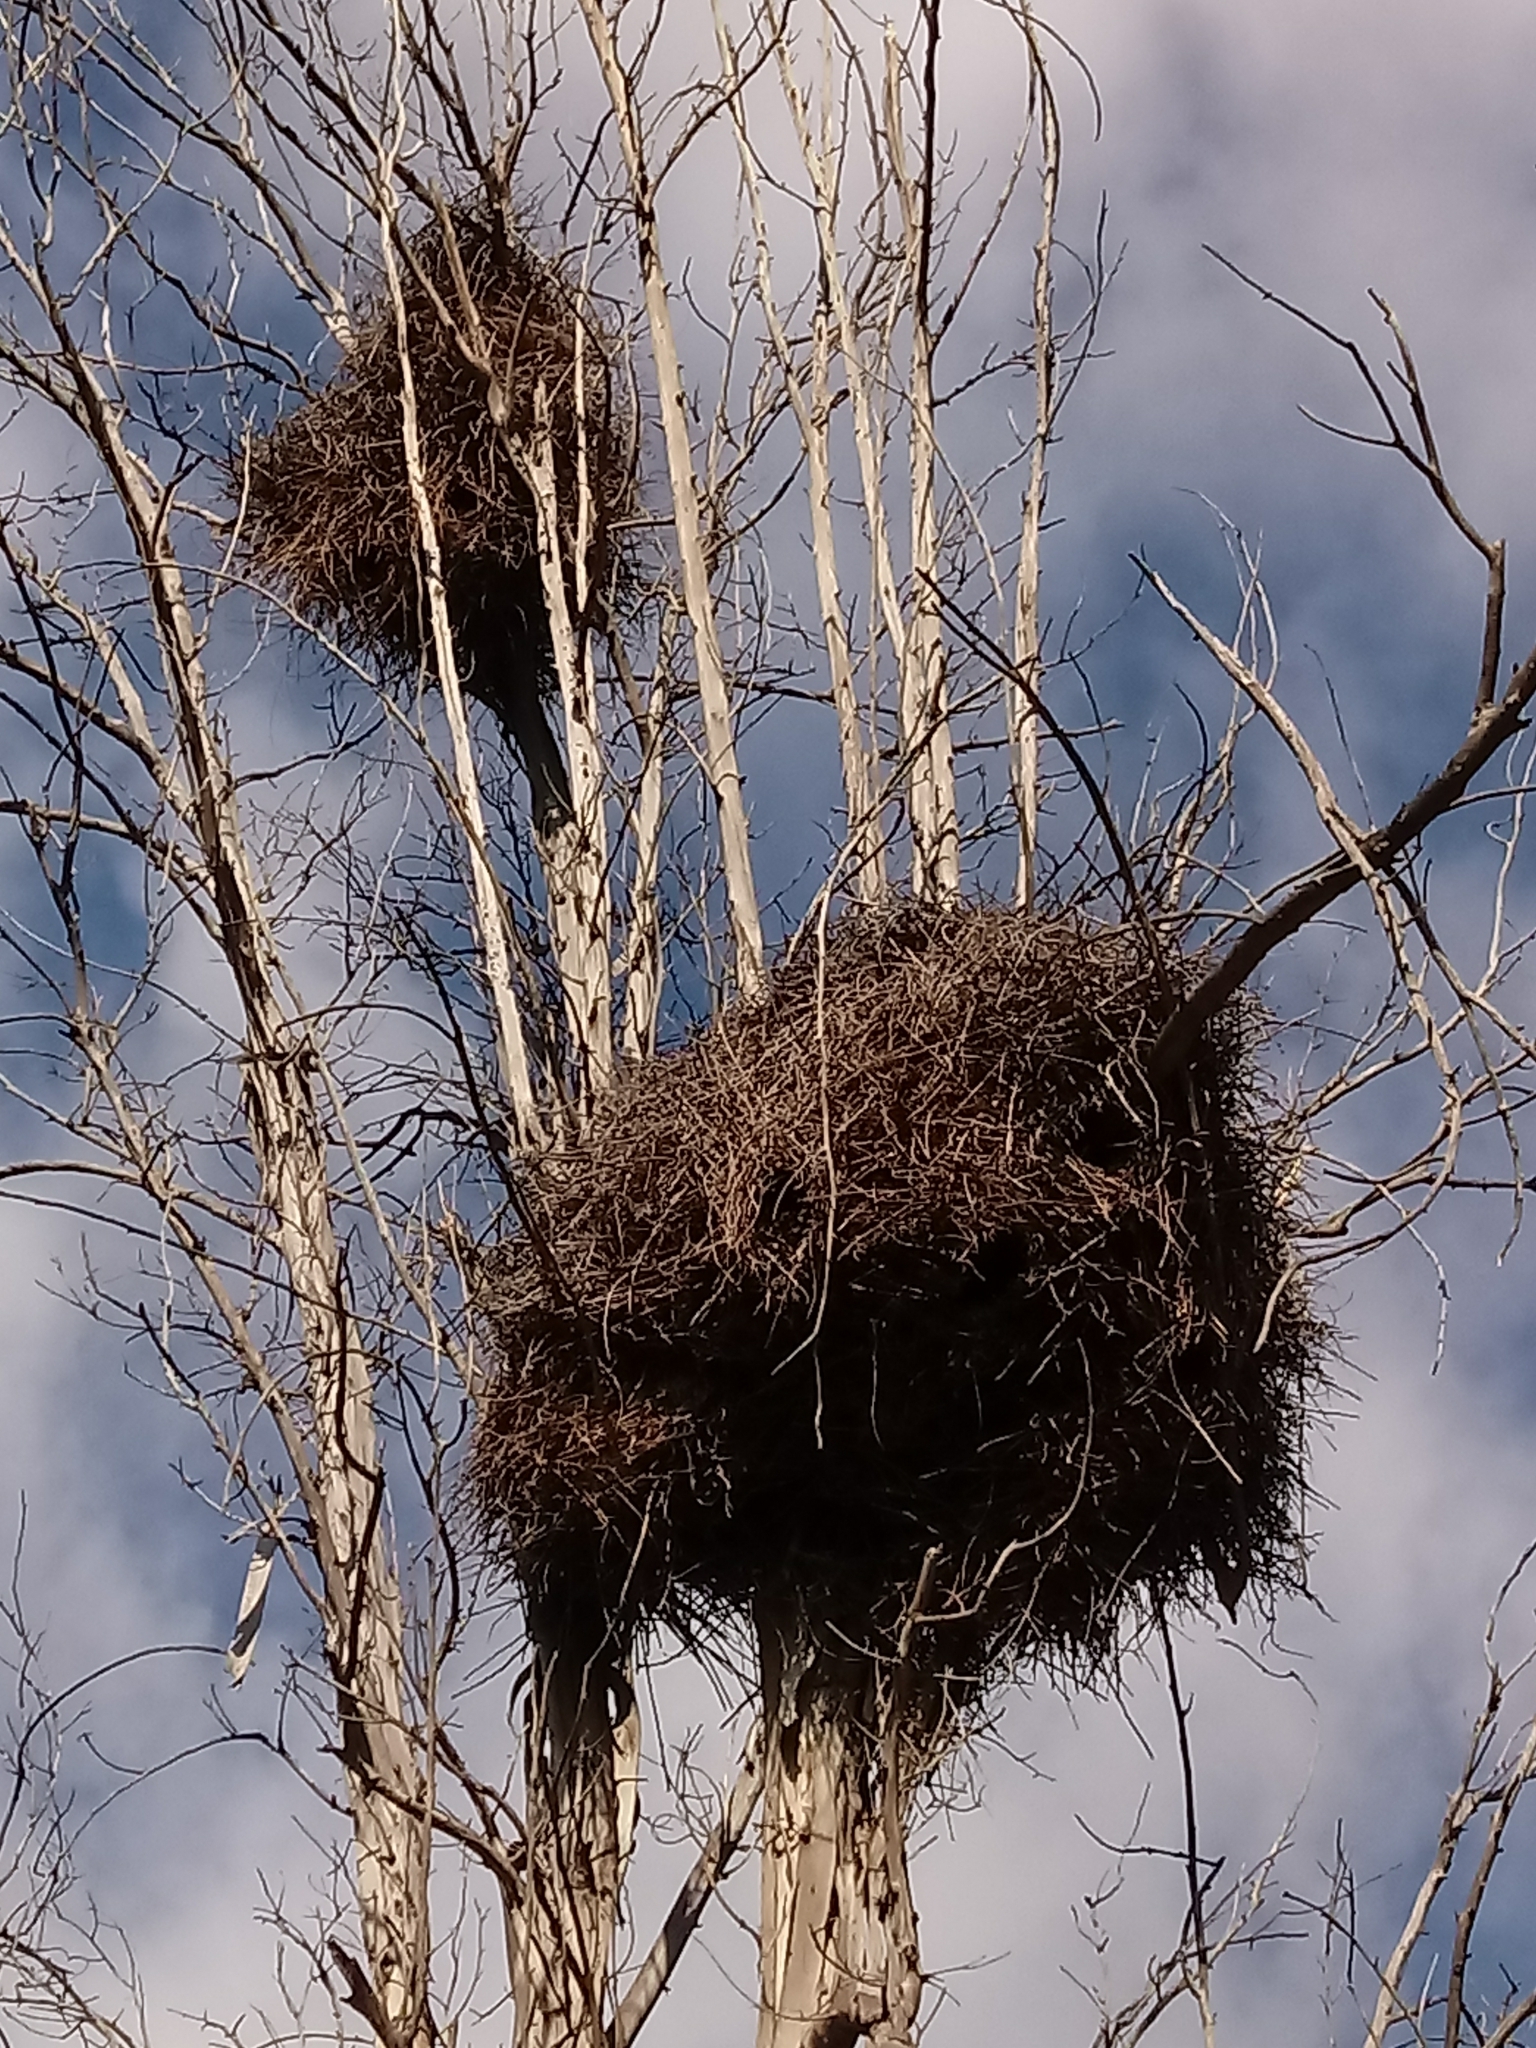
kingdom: Animalia
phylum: Chordata
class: Aves
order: Psittaciformes
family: Psittacidae
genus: Myiopsitta
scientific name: Myiopsitta monachus
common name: Monk parakeet
